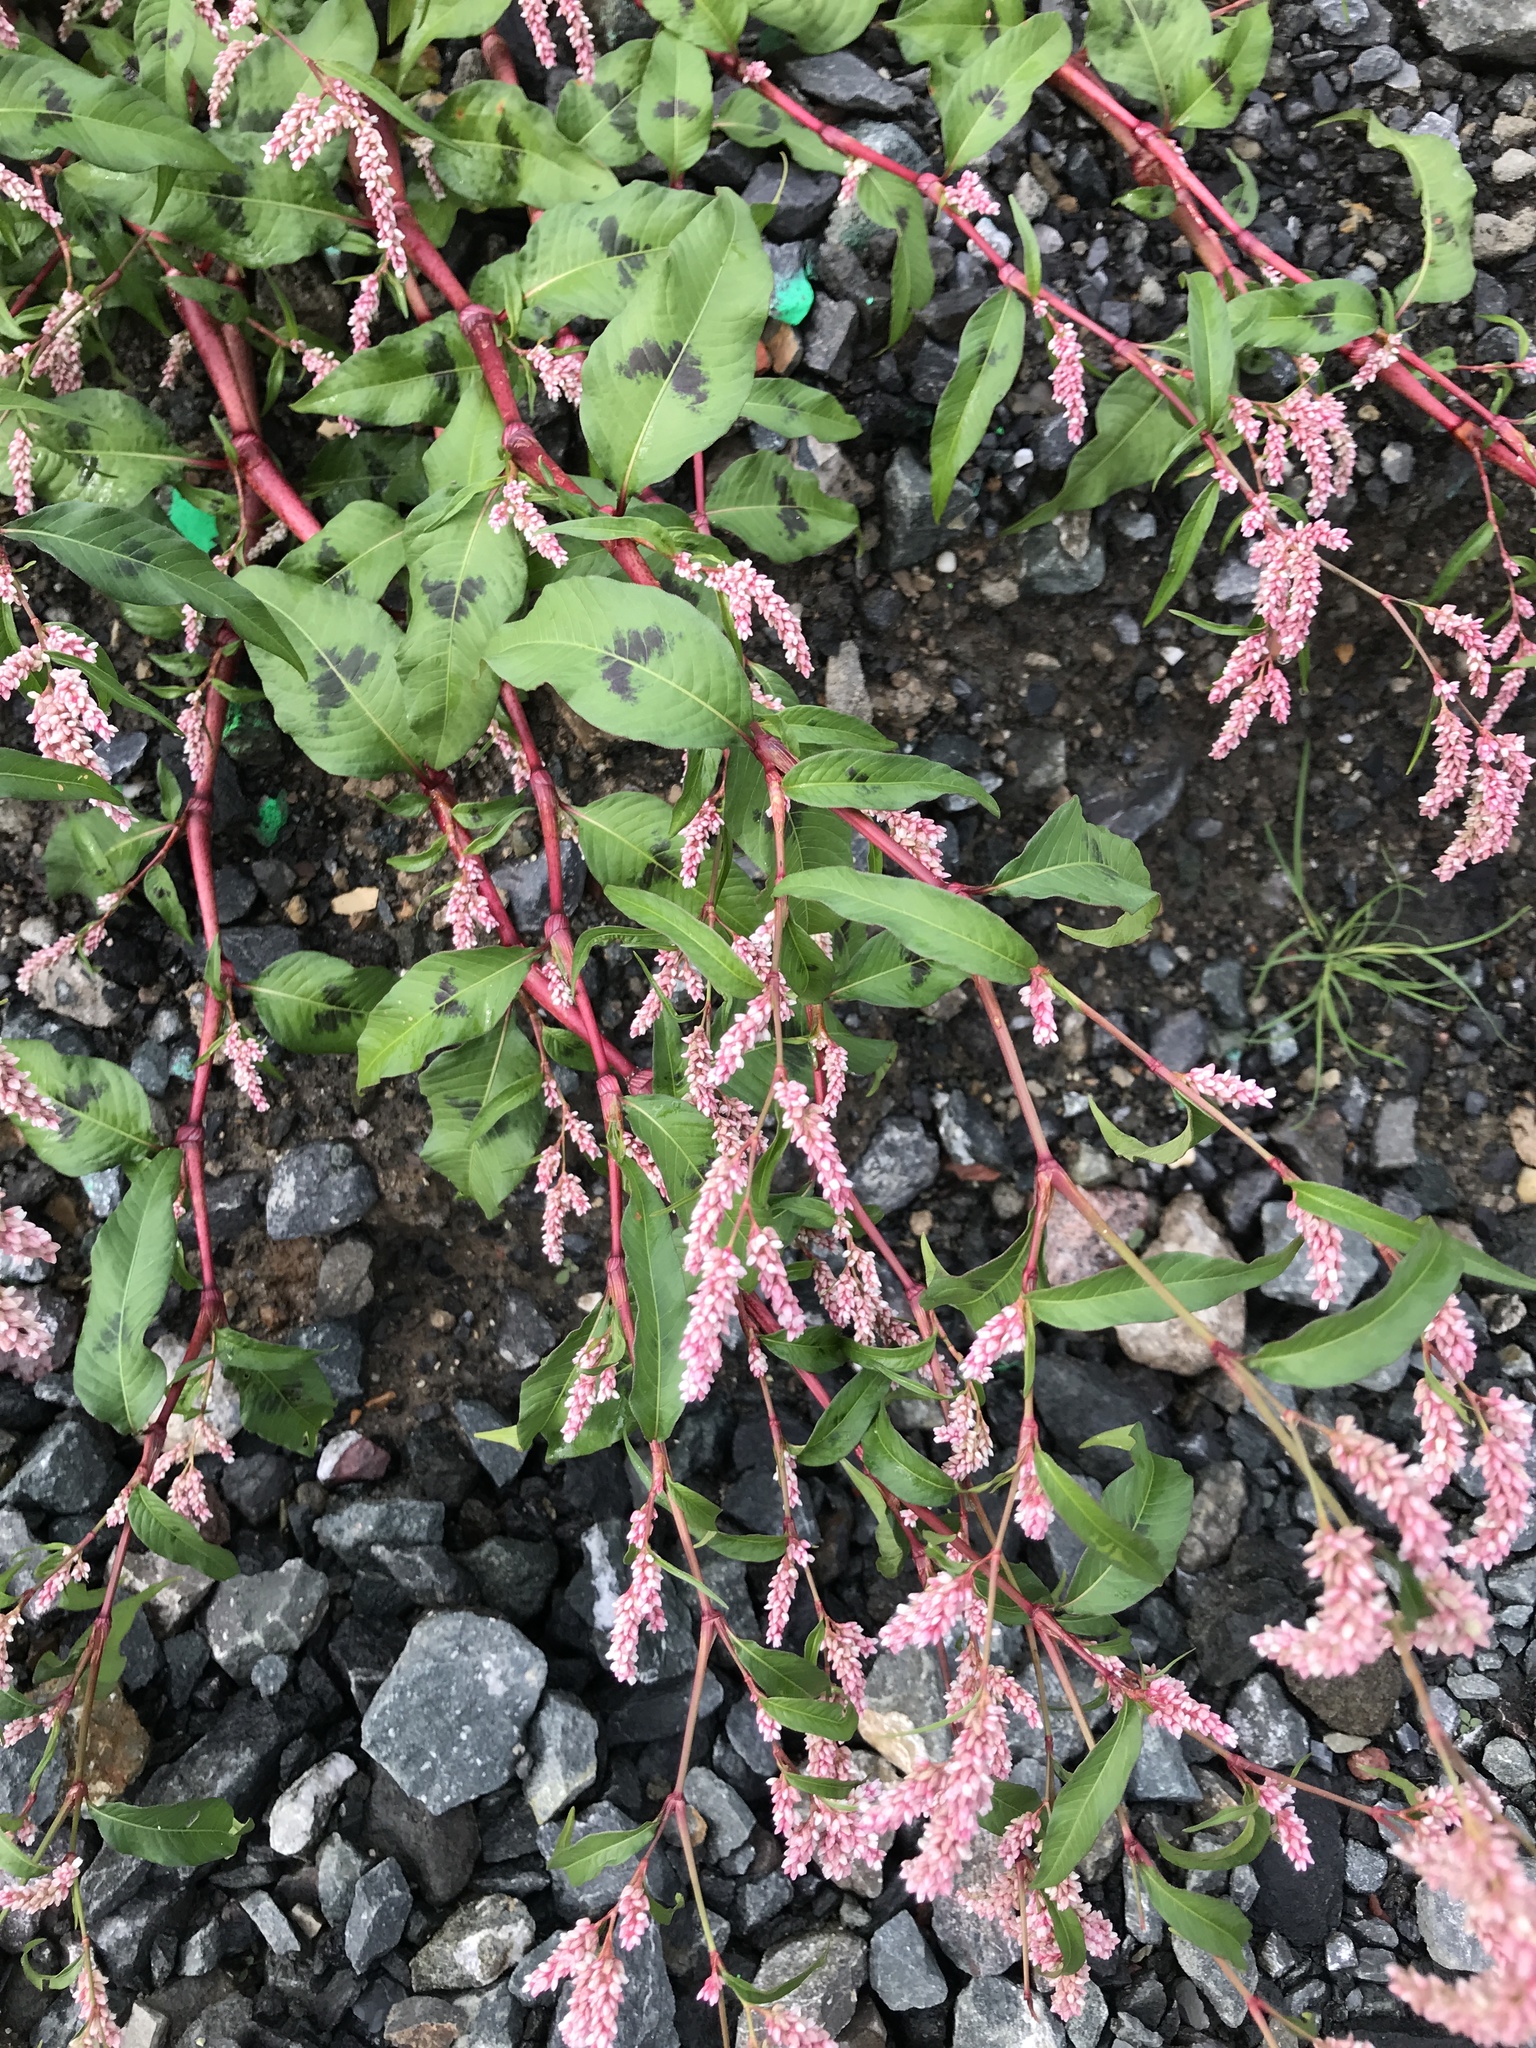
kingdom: Plantae
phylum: Tracheophyta
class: Magnoliopsida
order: Caryophyllales
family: Polygonaceae
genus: Persicaria
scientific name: Persicaria maculosa
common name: Redshank
